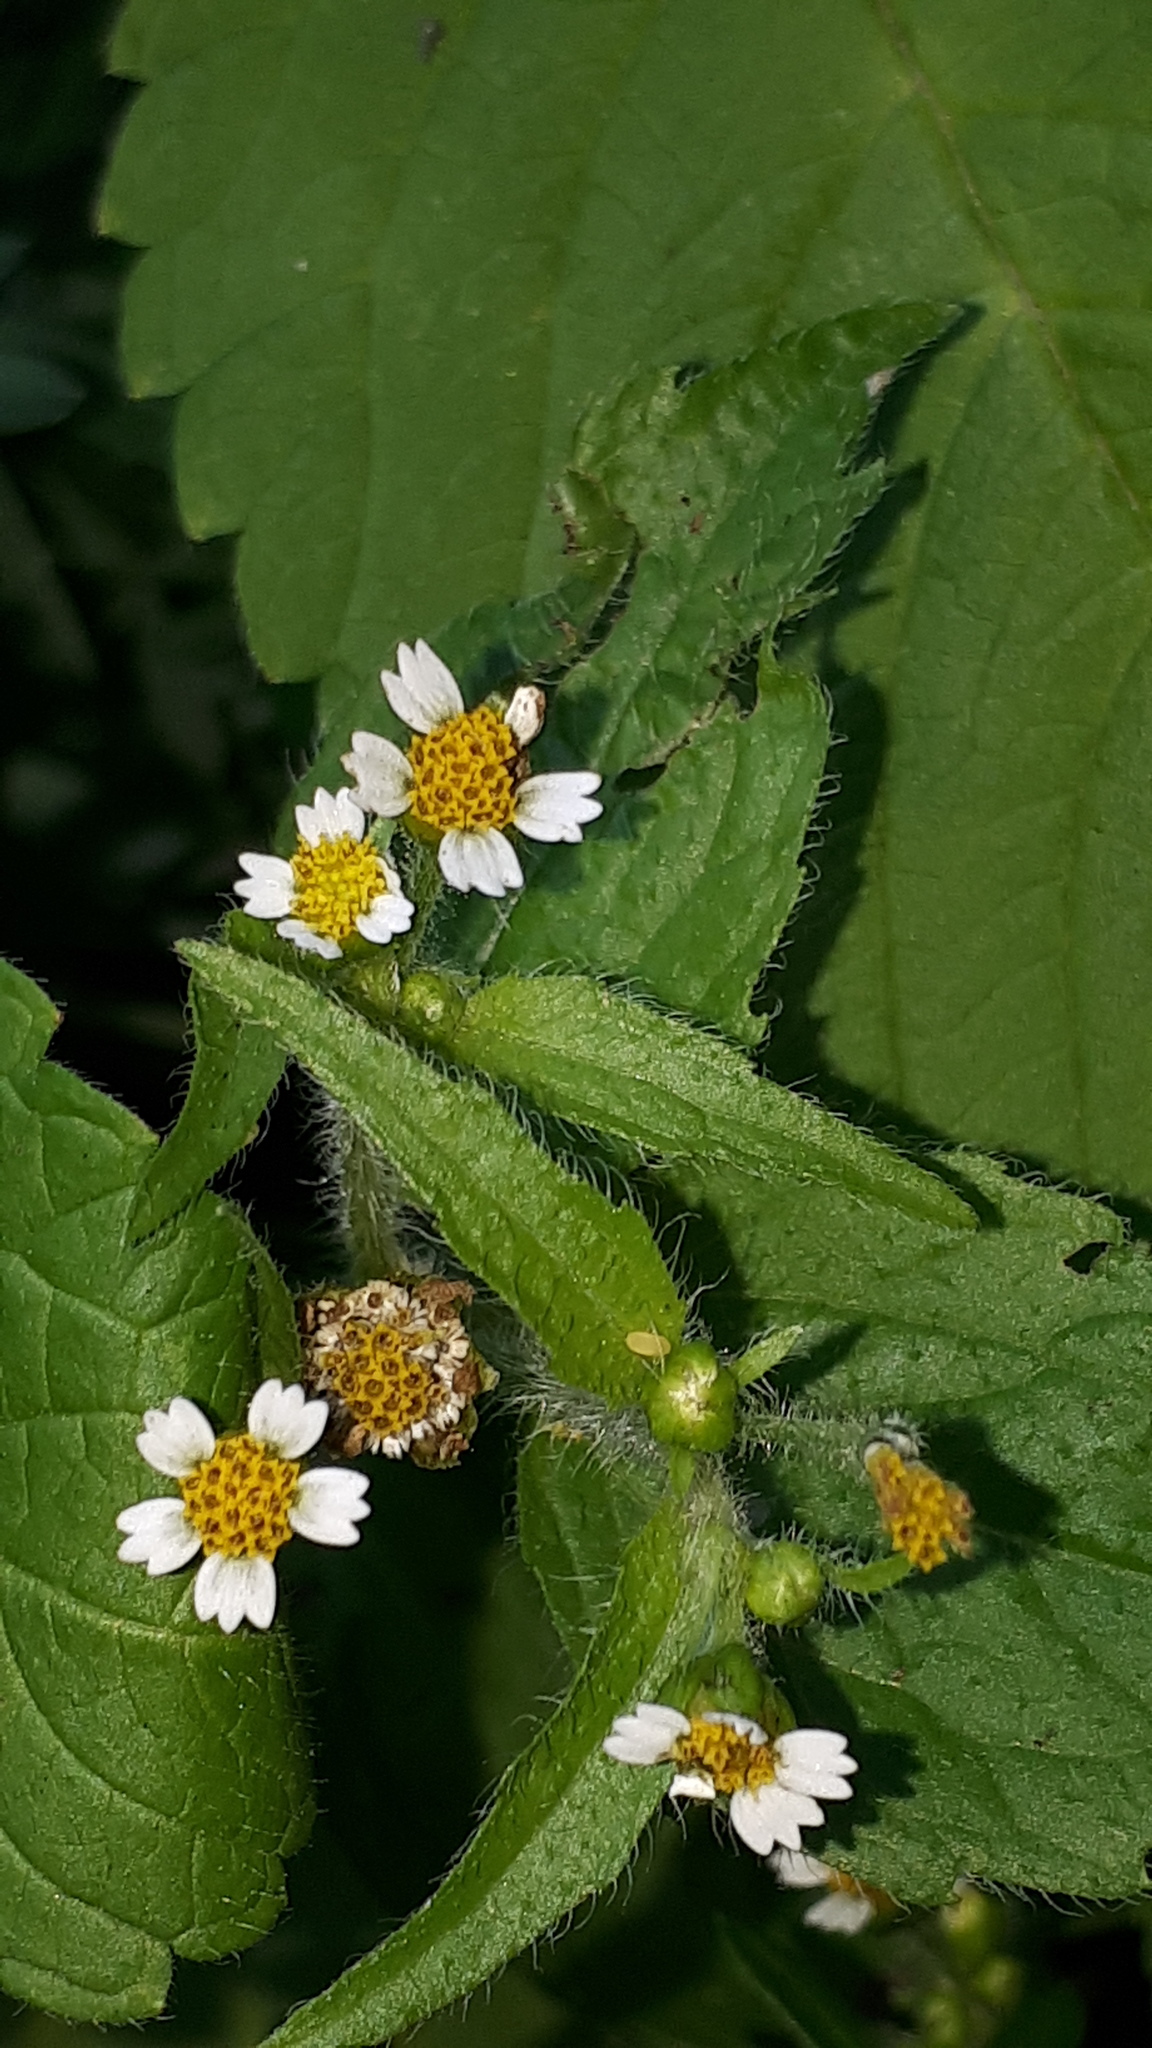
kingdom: Plantae
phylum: Tracheophyta
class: Magnoliopsida
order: Asterales
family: Asteraceae
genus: Galinsoga
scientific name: Galinsoga quadriradiata
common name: Shaggy soldier
